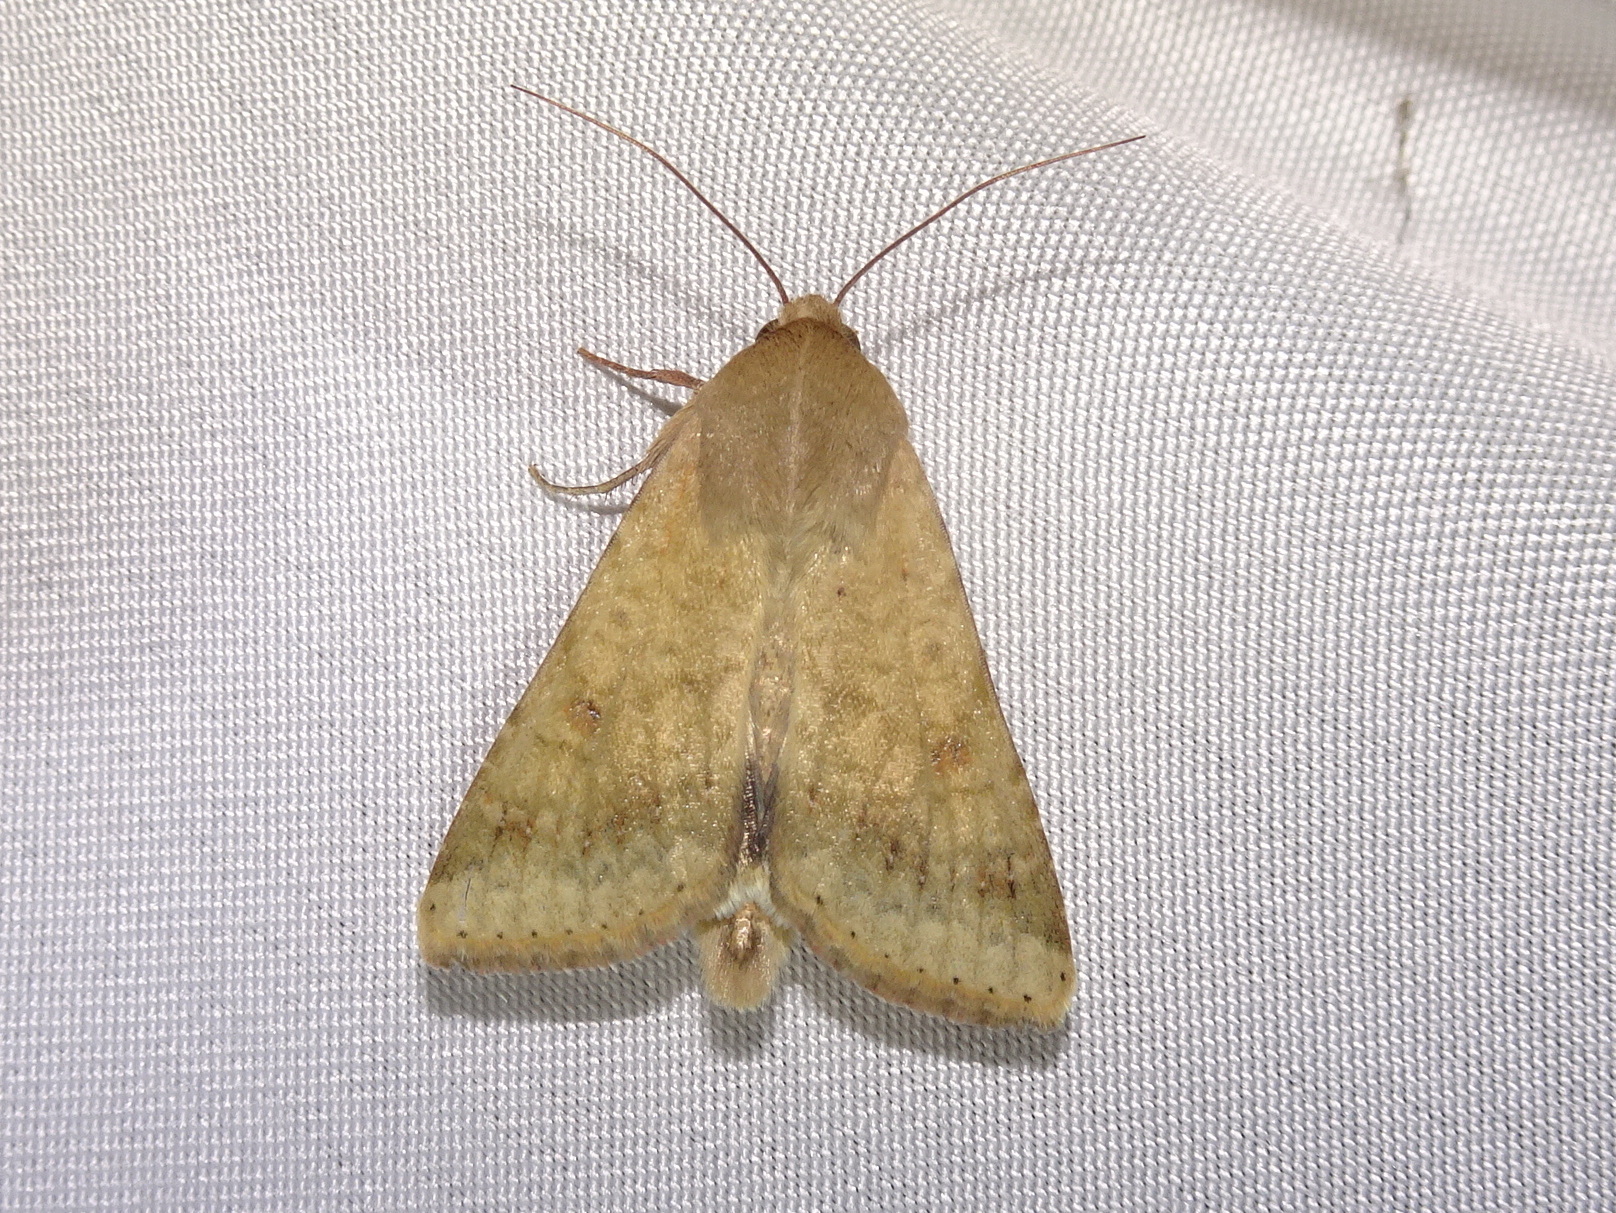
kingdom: Animalia
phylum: Arthropoda
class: Insecta
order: Lepidoptera
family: Noctuidae
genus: Helicoverpa
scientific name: Helicoverpa zea
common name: Bollworm
